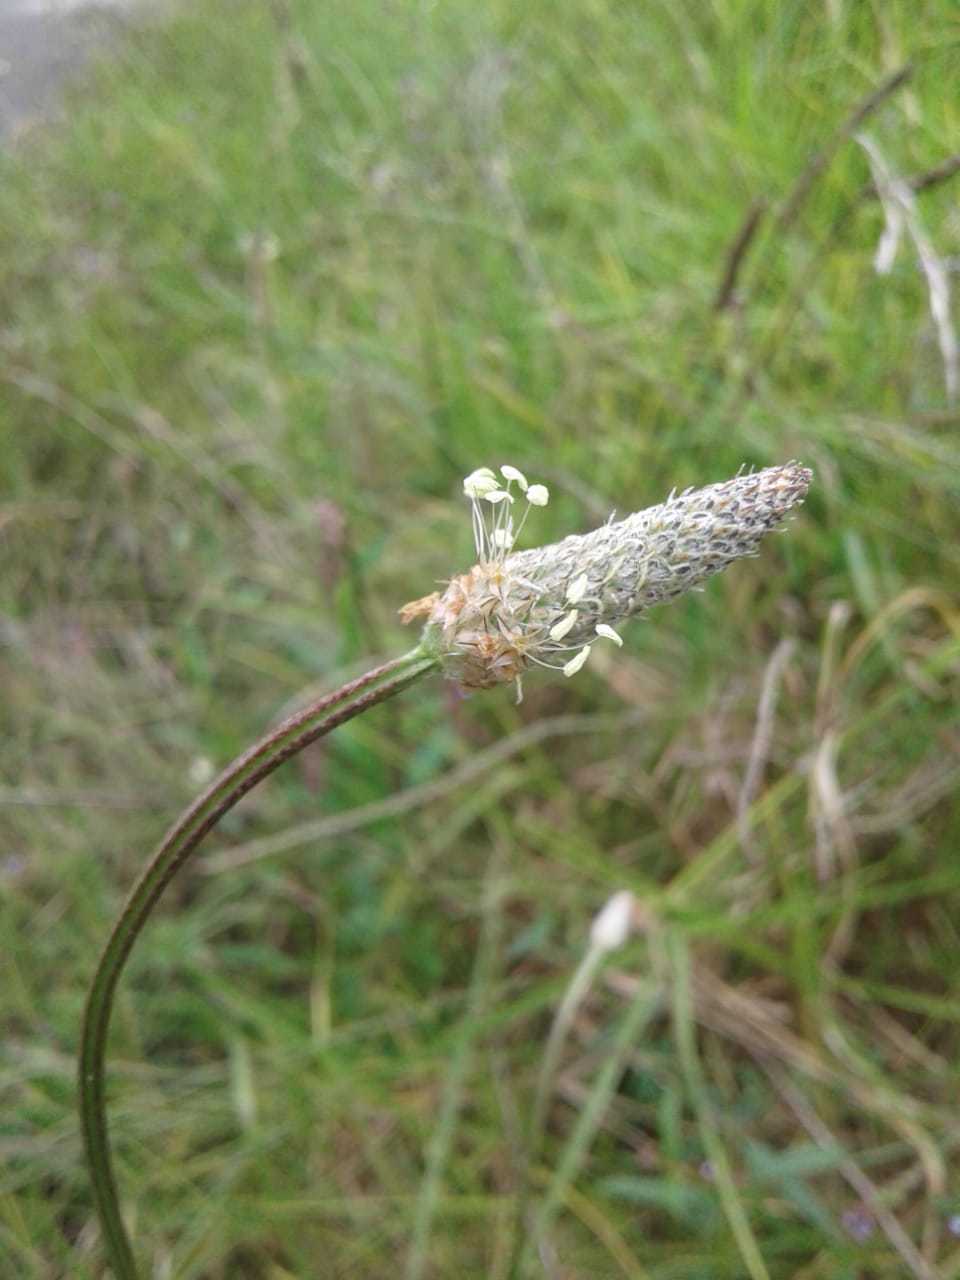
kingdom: Plantae
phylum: Tracheophyta
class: Magnoliopsida
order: Lamiales
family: Plantaginaceae
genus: Plantago
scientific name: Plantago lanceolata
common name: Ribwort plantain
